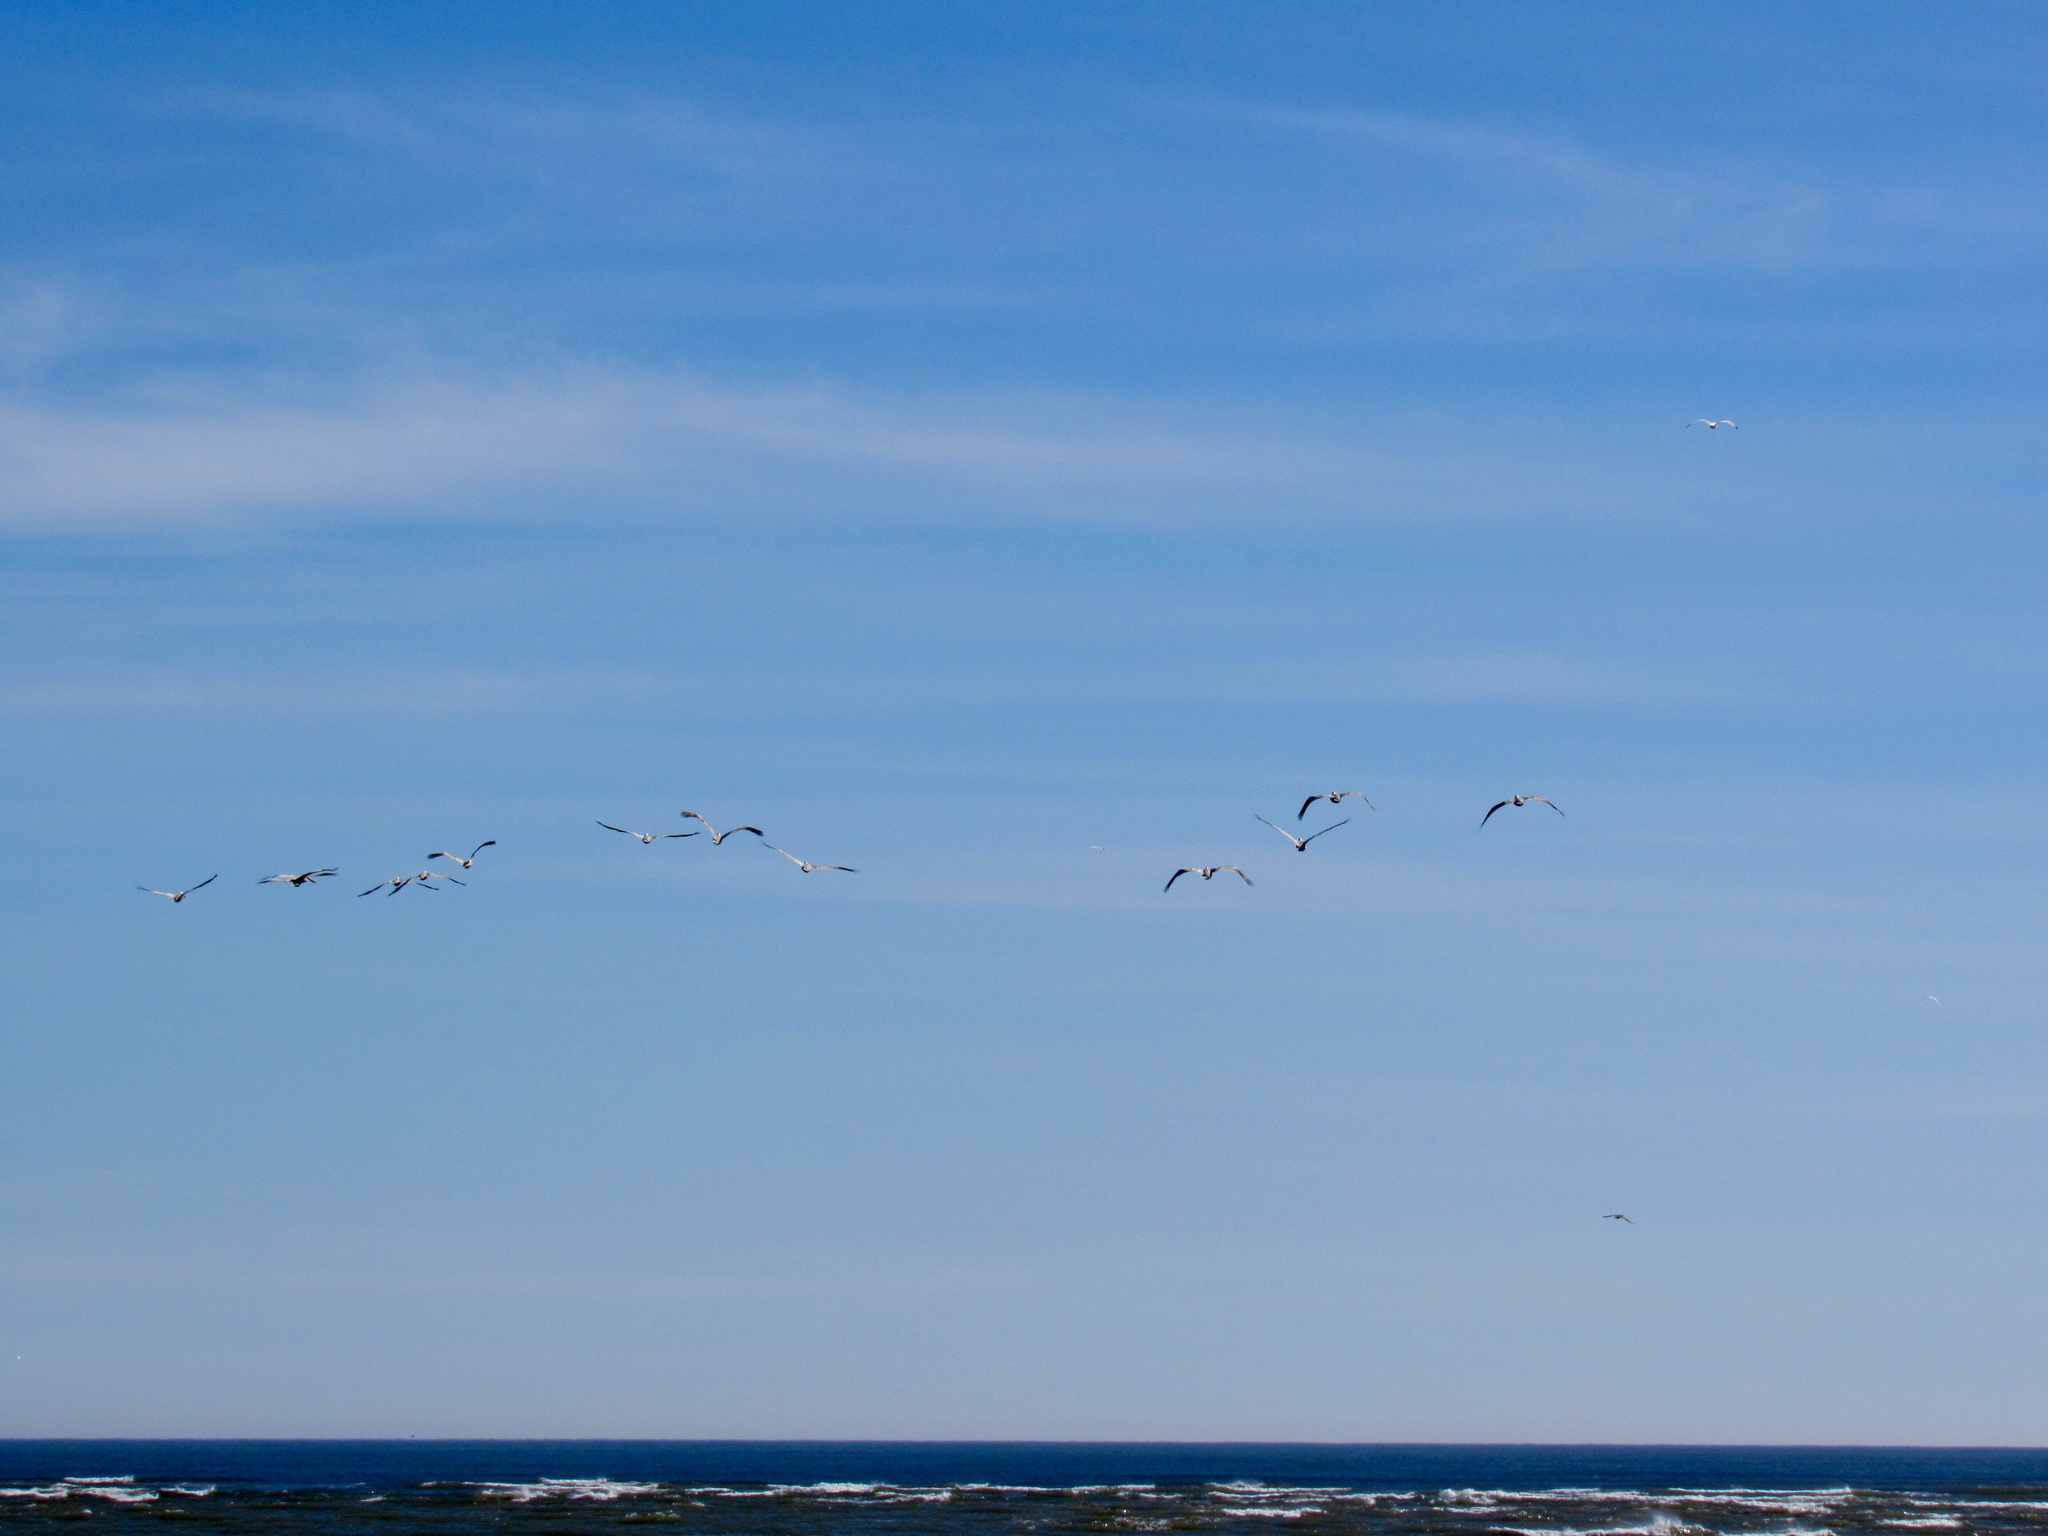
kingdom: Animalia
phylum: Chordata
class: Aves
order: Pelecaniformes
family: Pelecanidae
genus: Pelecanus
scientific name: Pelecanus occidentalis
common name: Brown pelican
